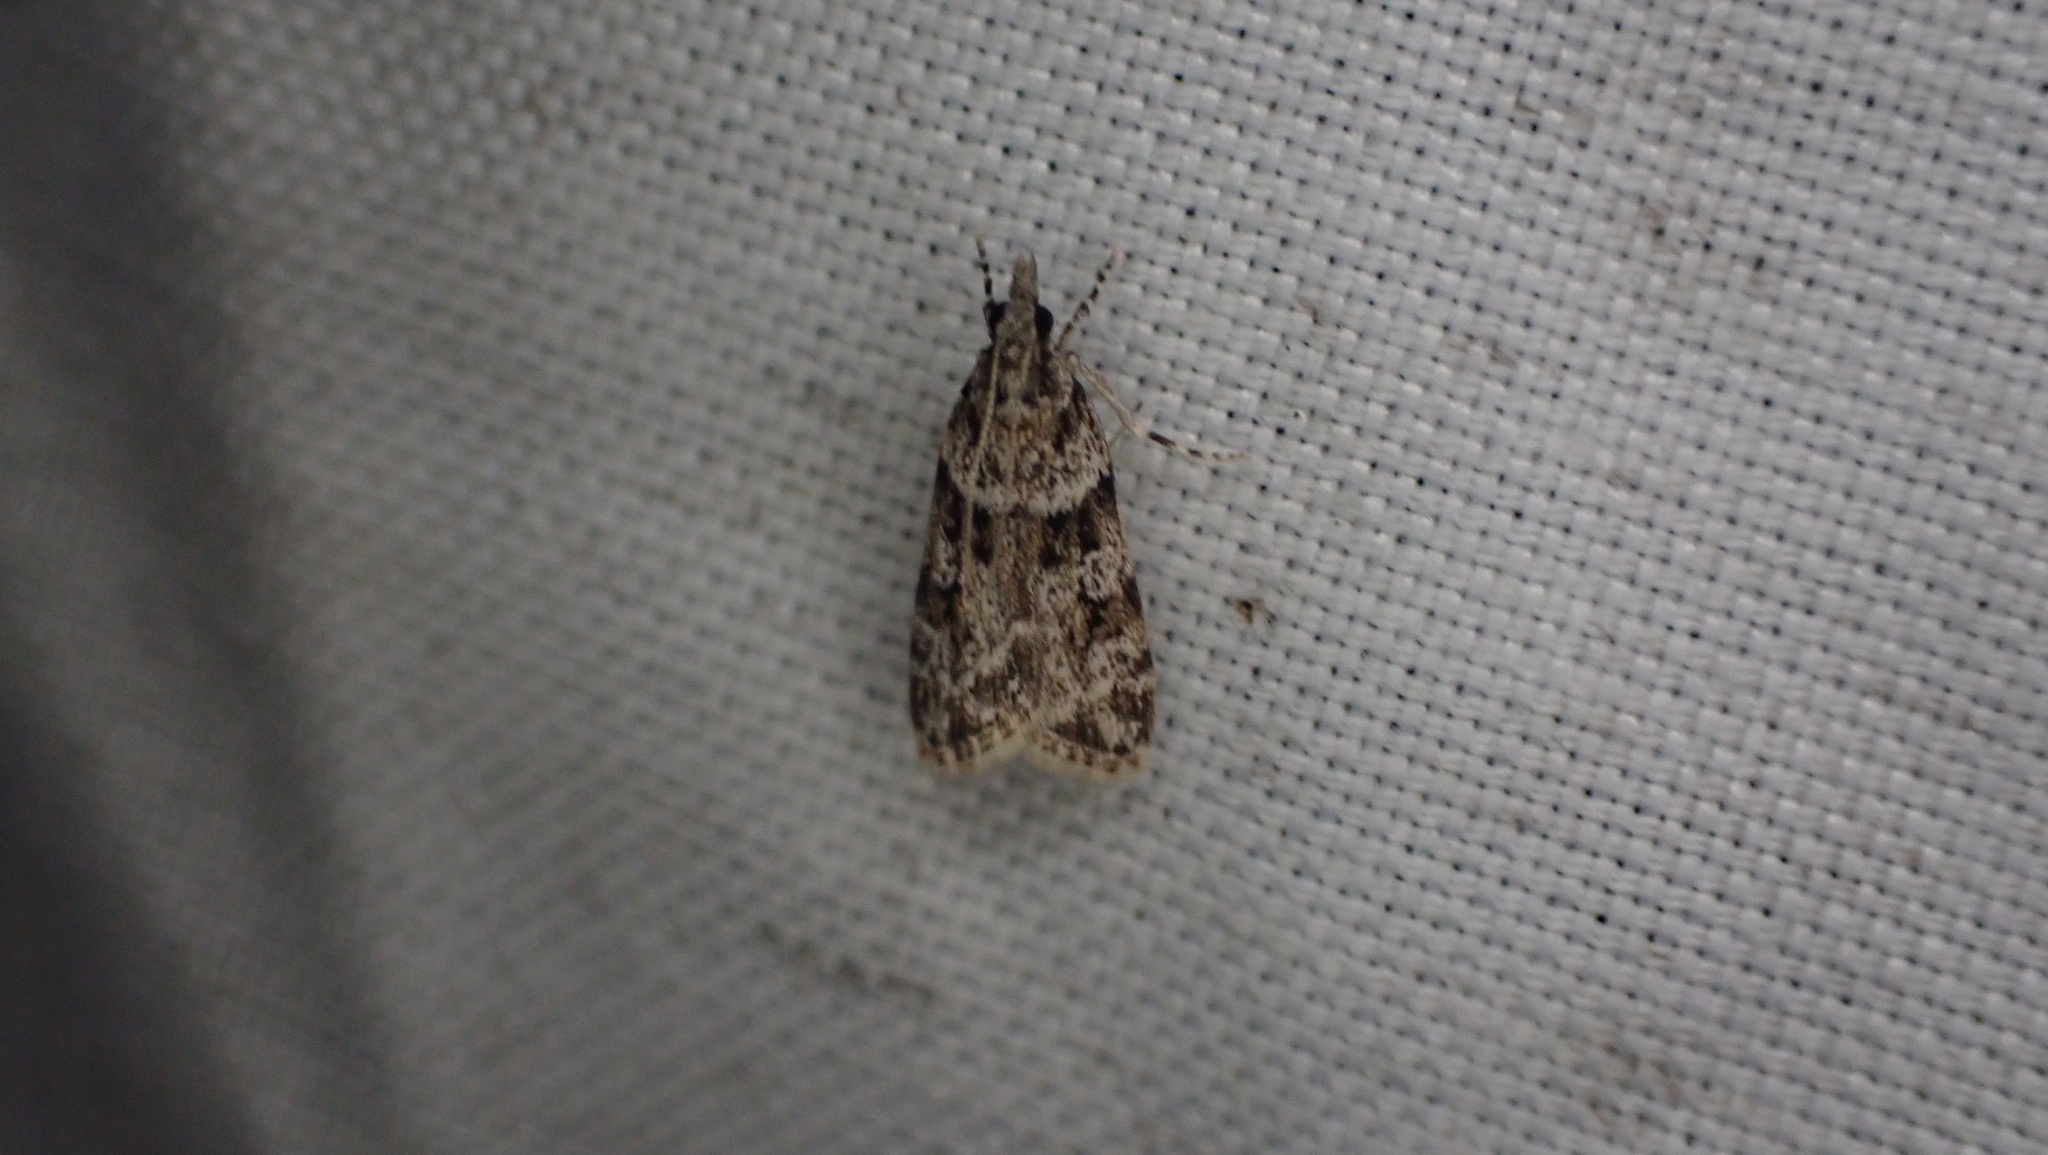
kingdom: Animalia
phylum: Arthropoda
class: Insecta
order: Lepidoptera
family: Crambidae
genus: Scoparia
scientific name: Scoparia biplagialis
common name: Double-striped scoparia moth
